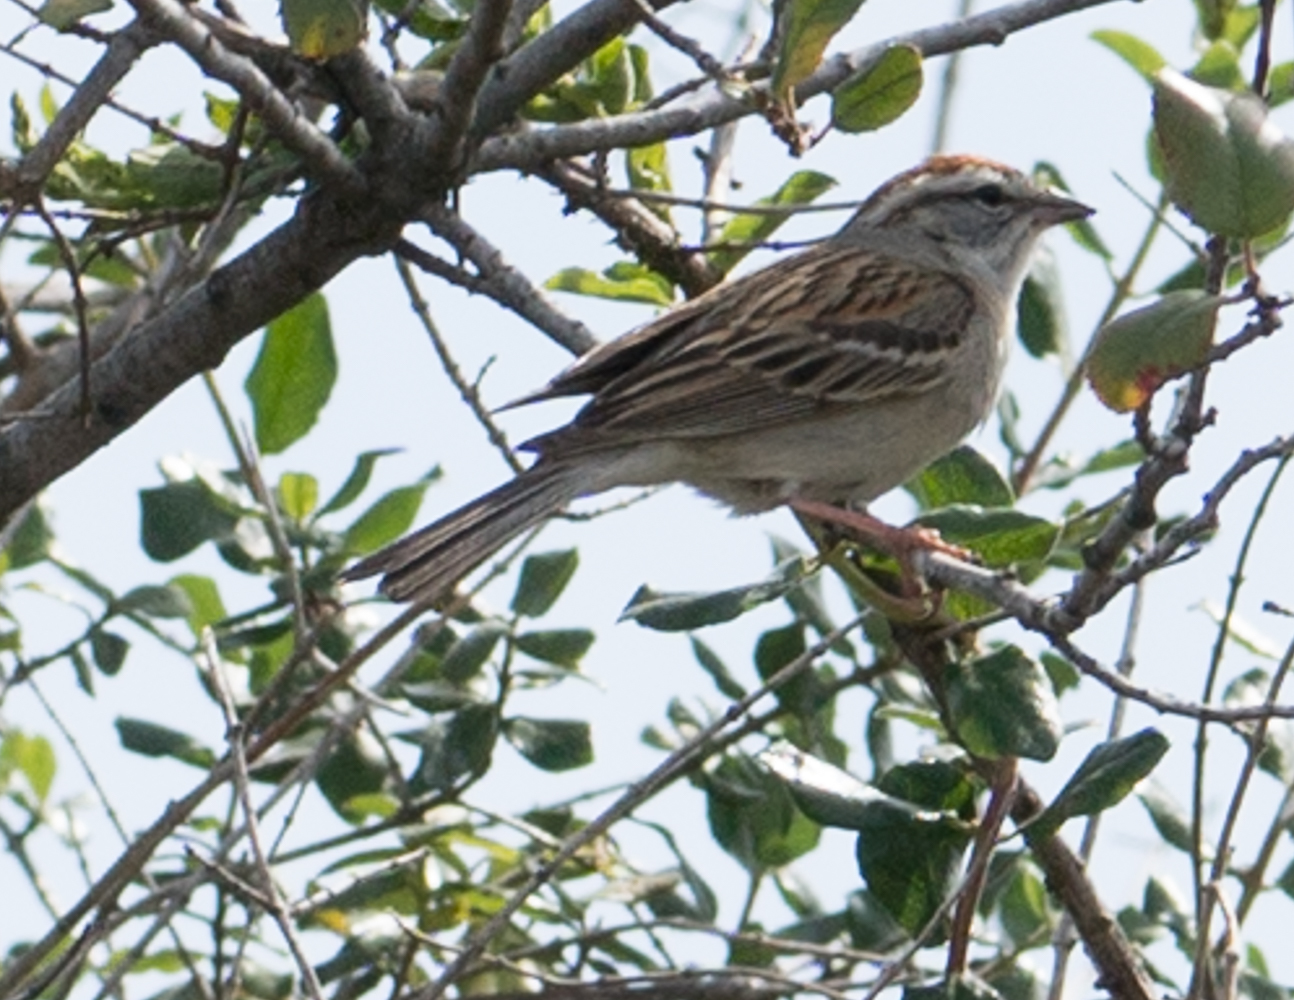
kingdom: Animalia
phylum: Chordata
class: Aves
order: Passeriformes
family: Passerellidae
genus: Spizella
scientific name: Spizella passerina
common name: Chipping sparrow
